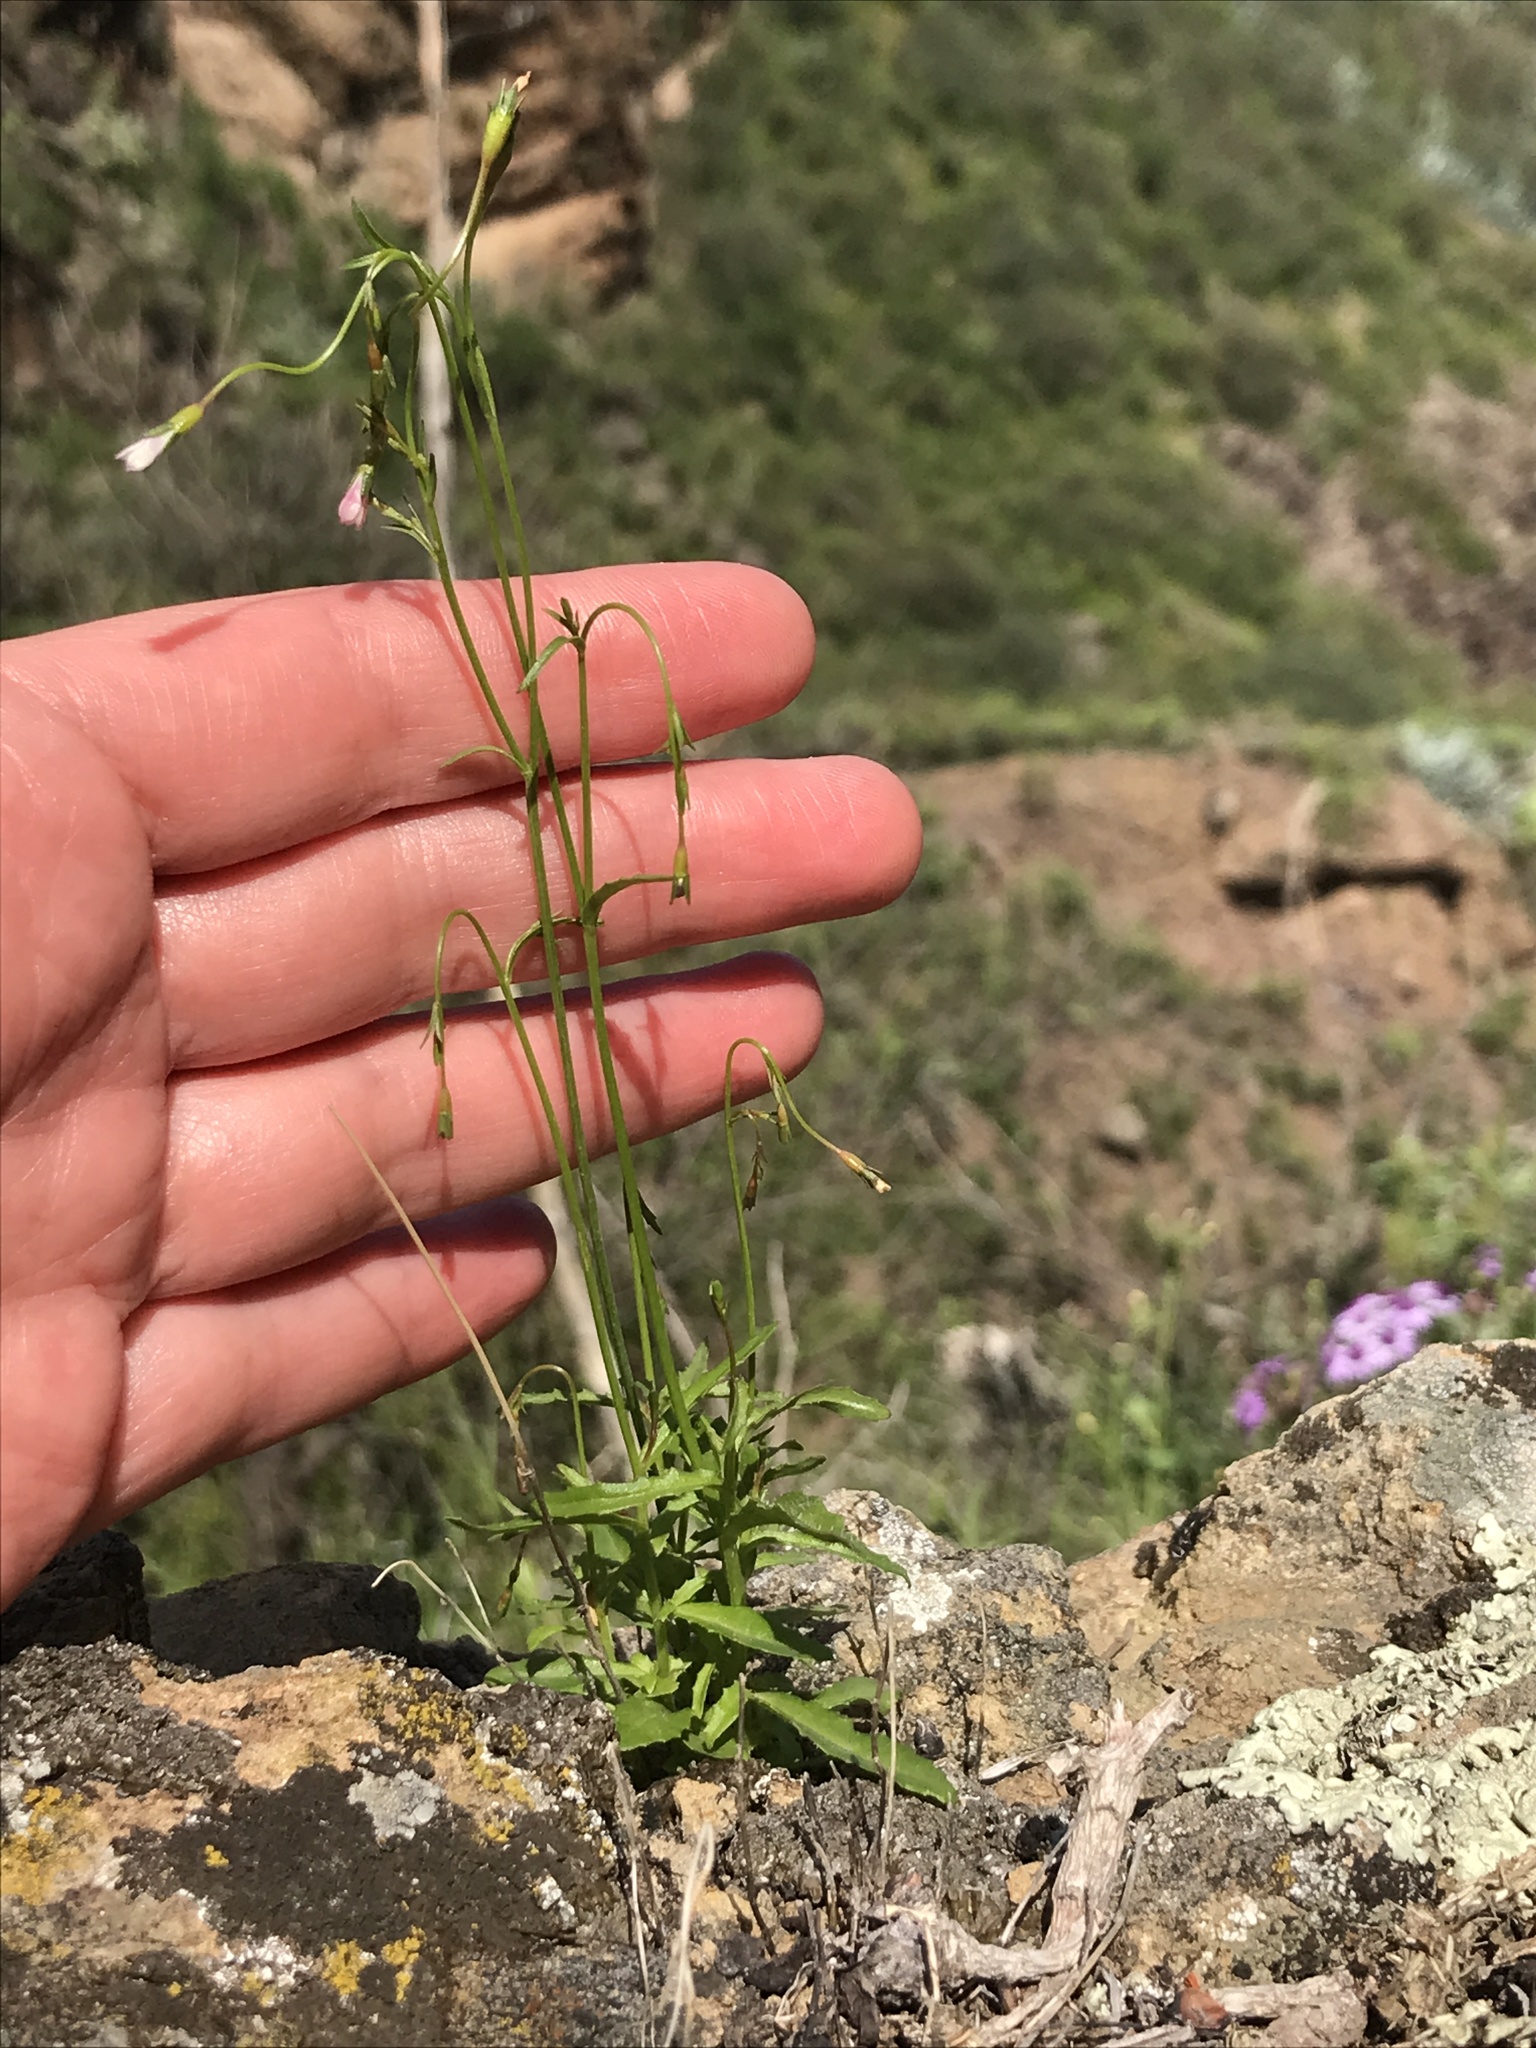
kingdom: Plantae
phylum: Tracheophyta
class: Magnoliopsida
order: Asterales
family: Campanulaceae
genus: Wahlenbergia
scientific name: Wahlenbergia lobelioides
